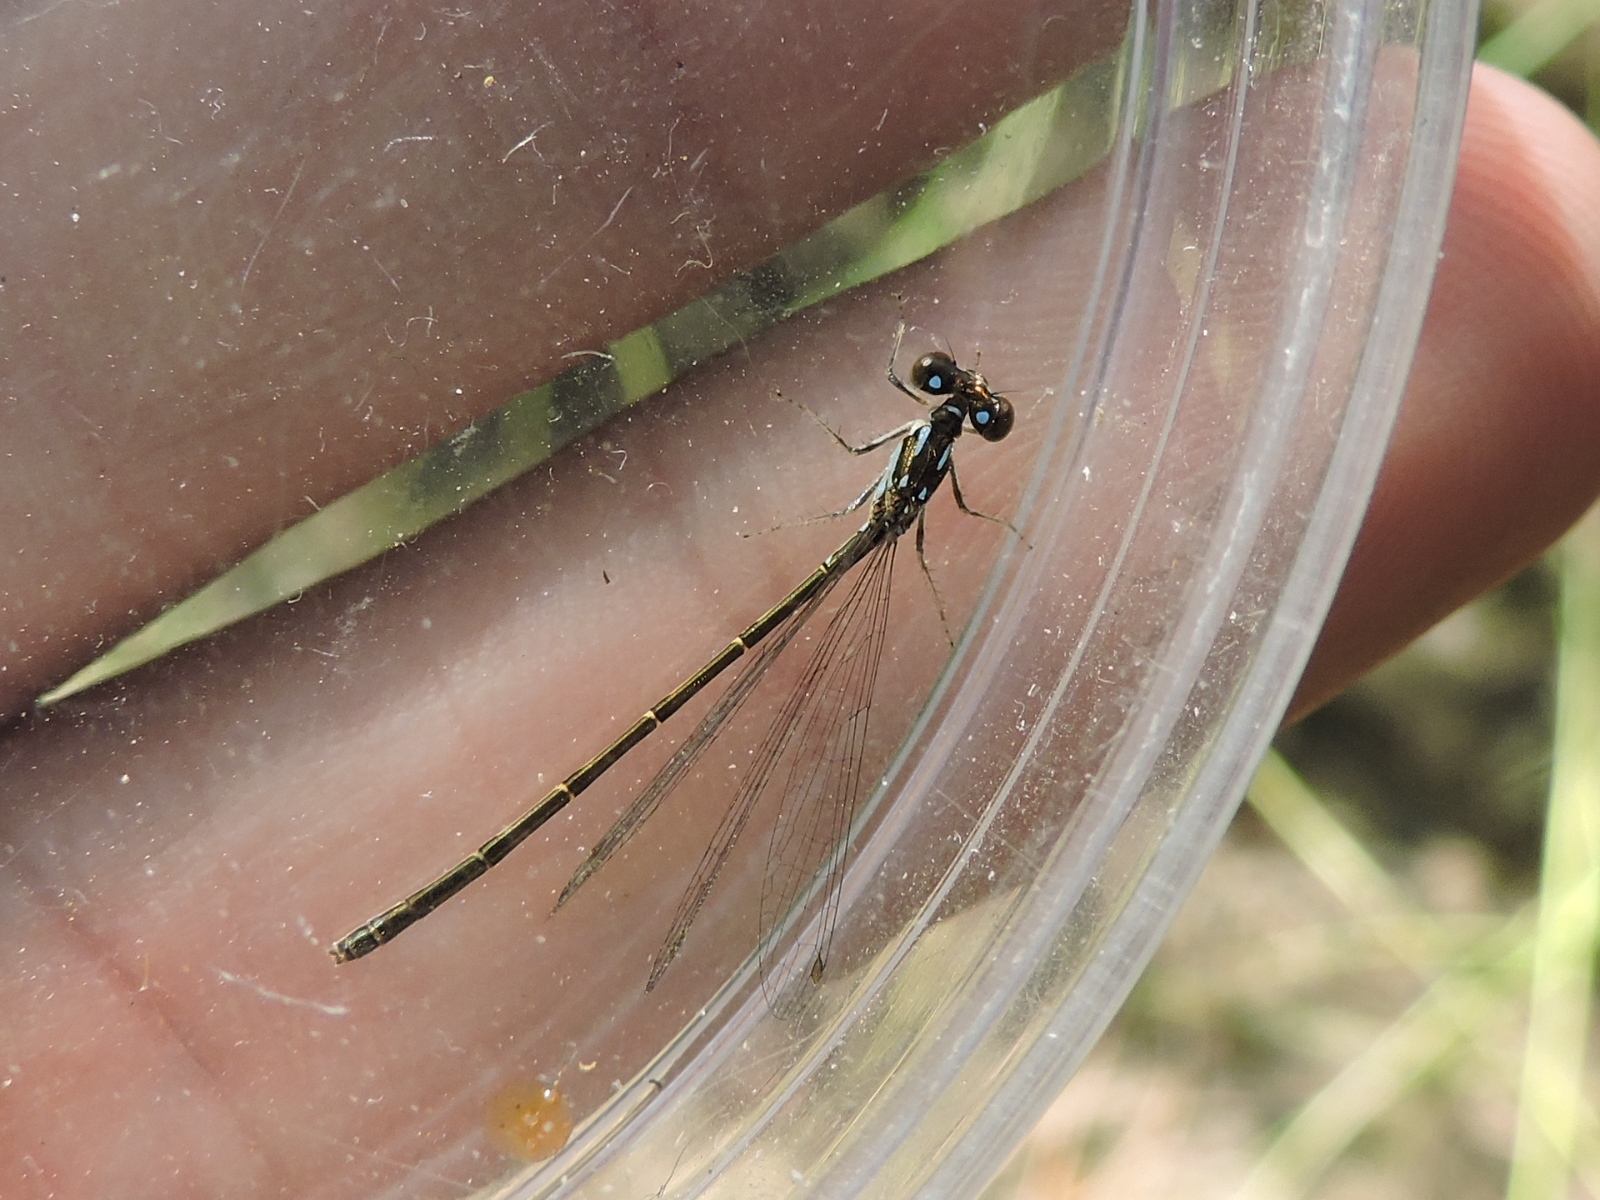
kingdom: Animalia
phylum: Arthropoda
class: Insecta
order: Odonata
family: Coenagrionidae
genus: Ischnura
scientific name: Ischnura posita
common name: Fragile forktail
